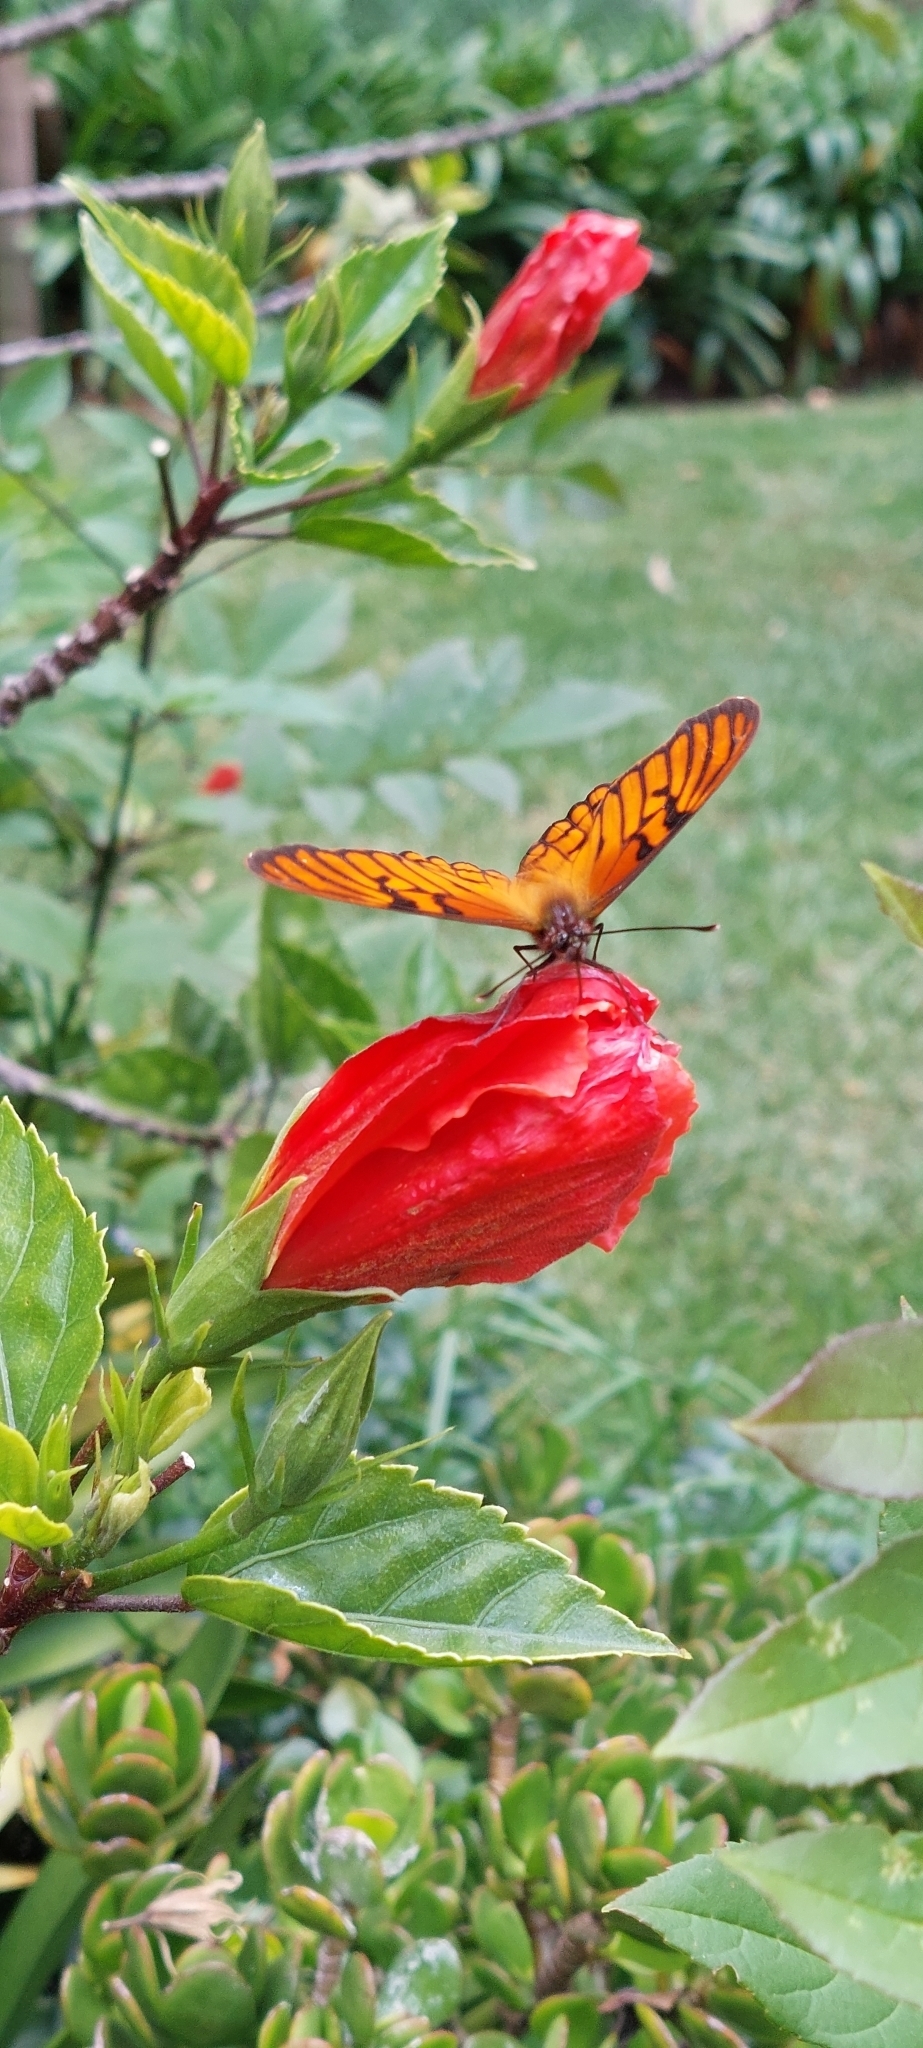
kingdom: Animalia
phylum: Arthropoda
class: Insecta
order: Lepidoptera
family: Nymphalidae
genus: Dione
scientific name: Dione glycera
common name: Andean silverspot
